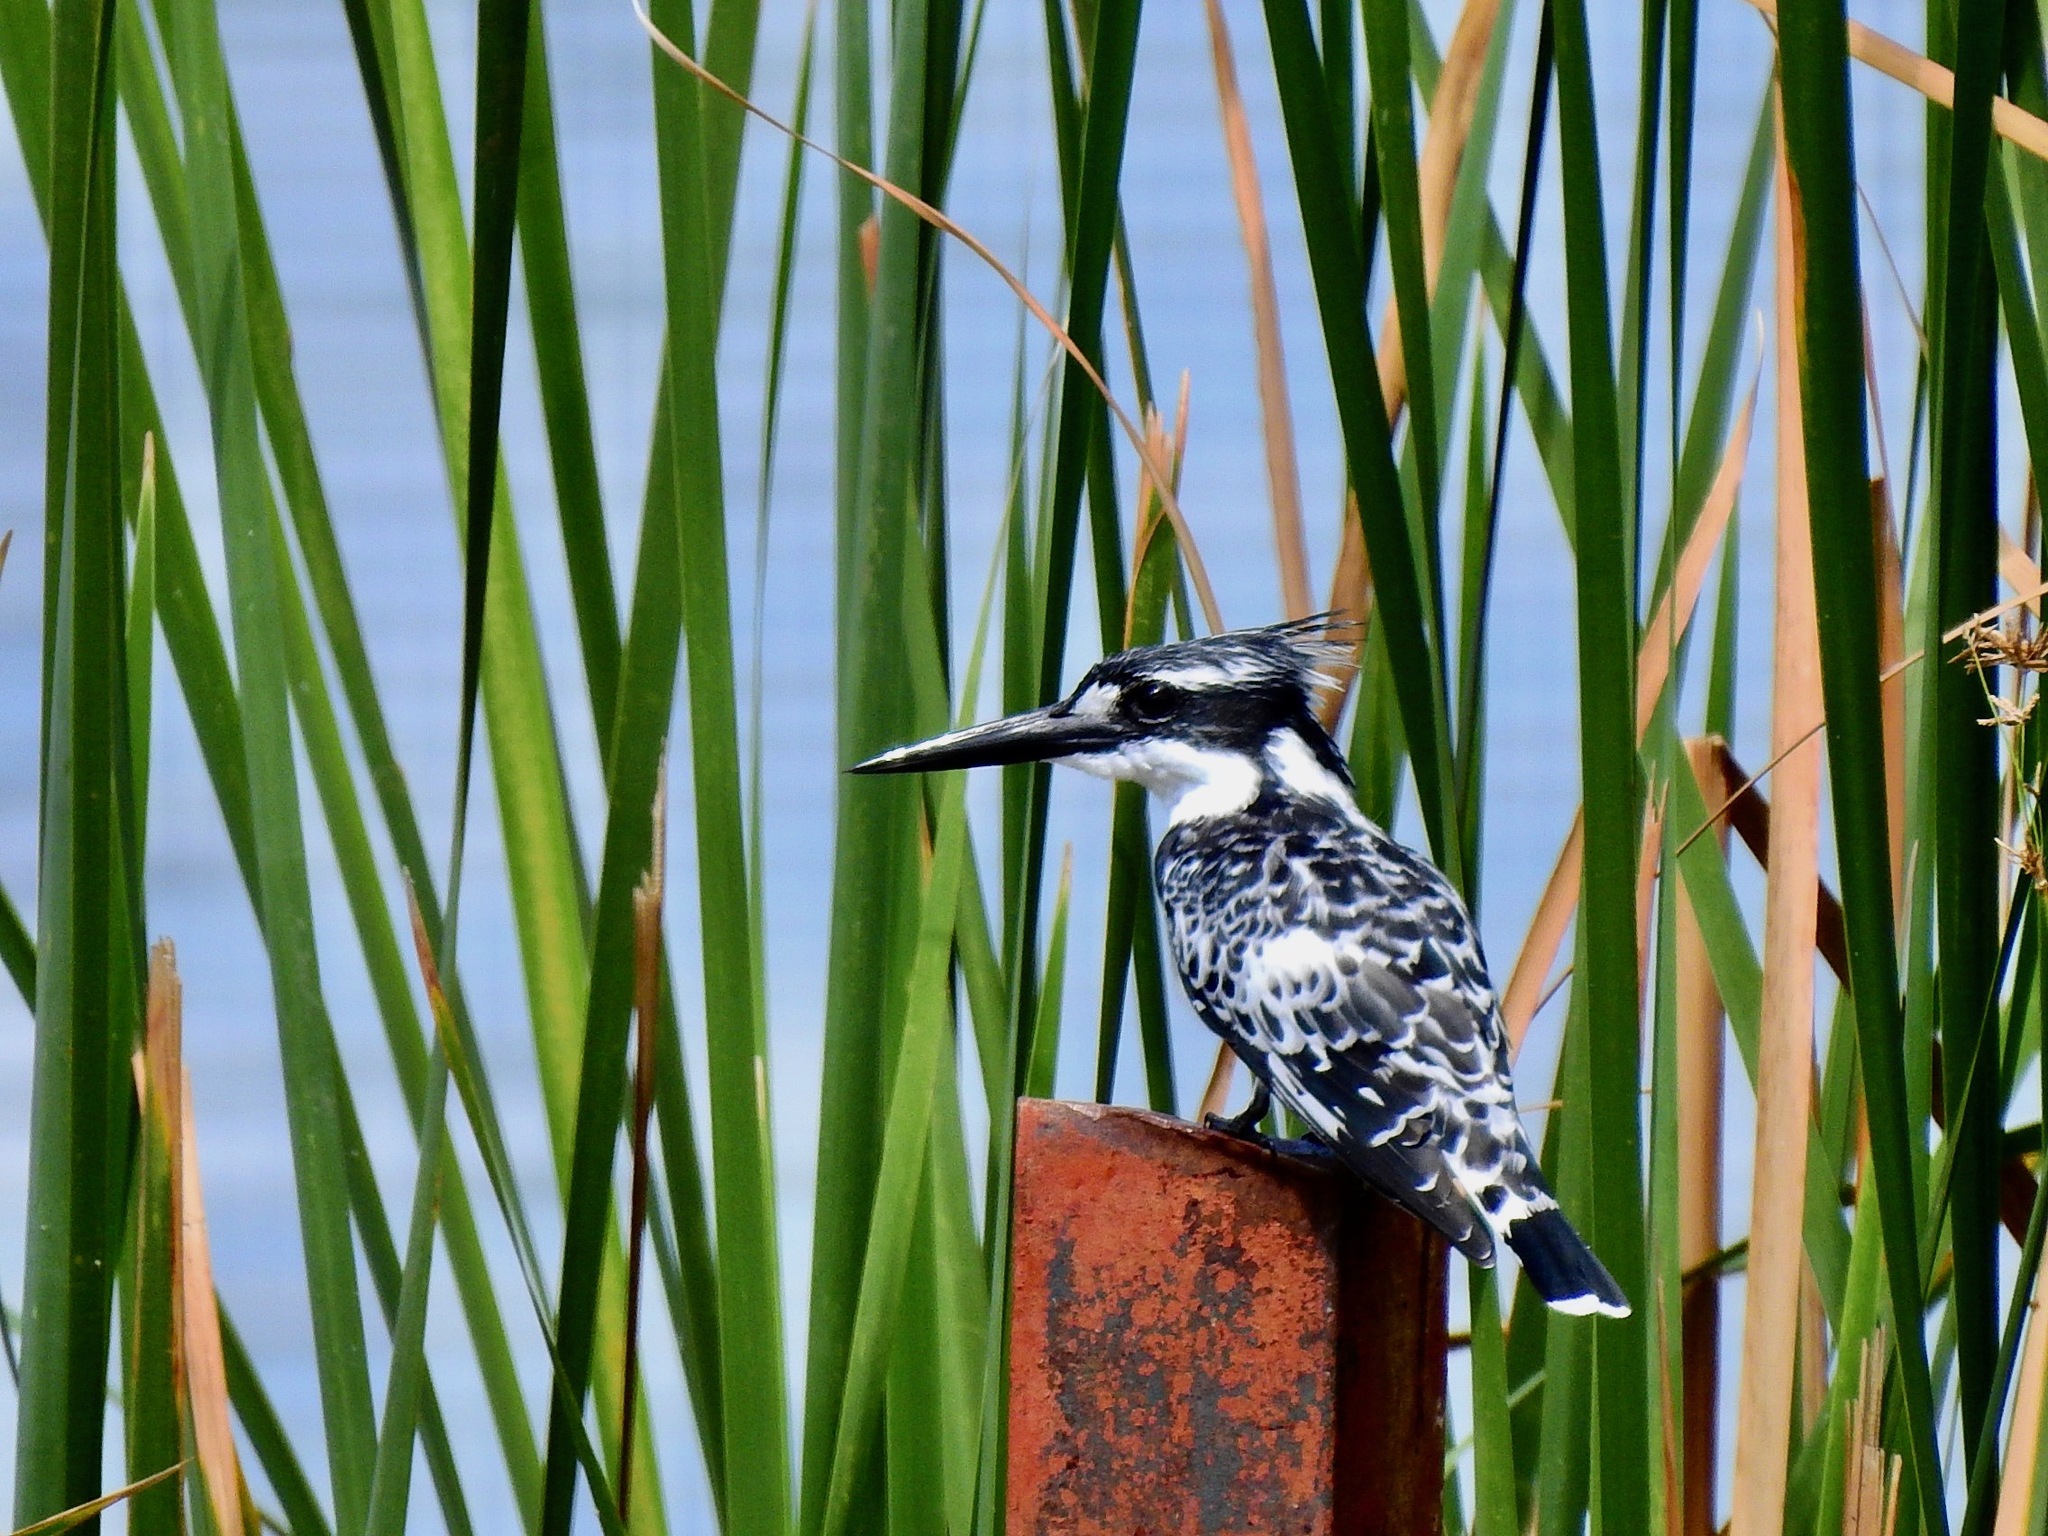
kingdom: Animalia
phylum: Chordata
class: Aves
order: Coraciiformes
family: Alcedinidae
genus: Ceryle
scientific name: Ceryle rudis
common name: Pied kingfisher
